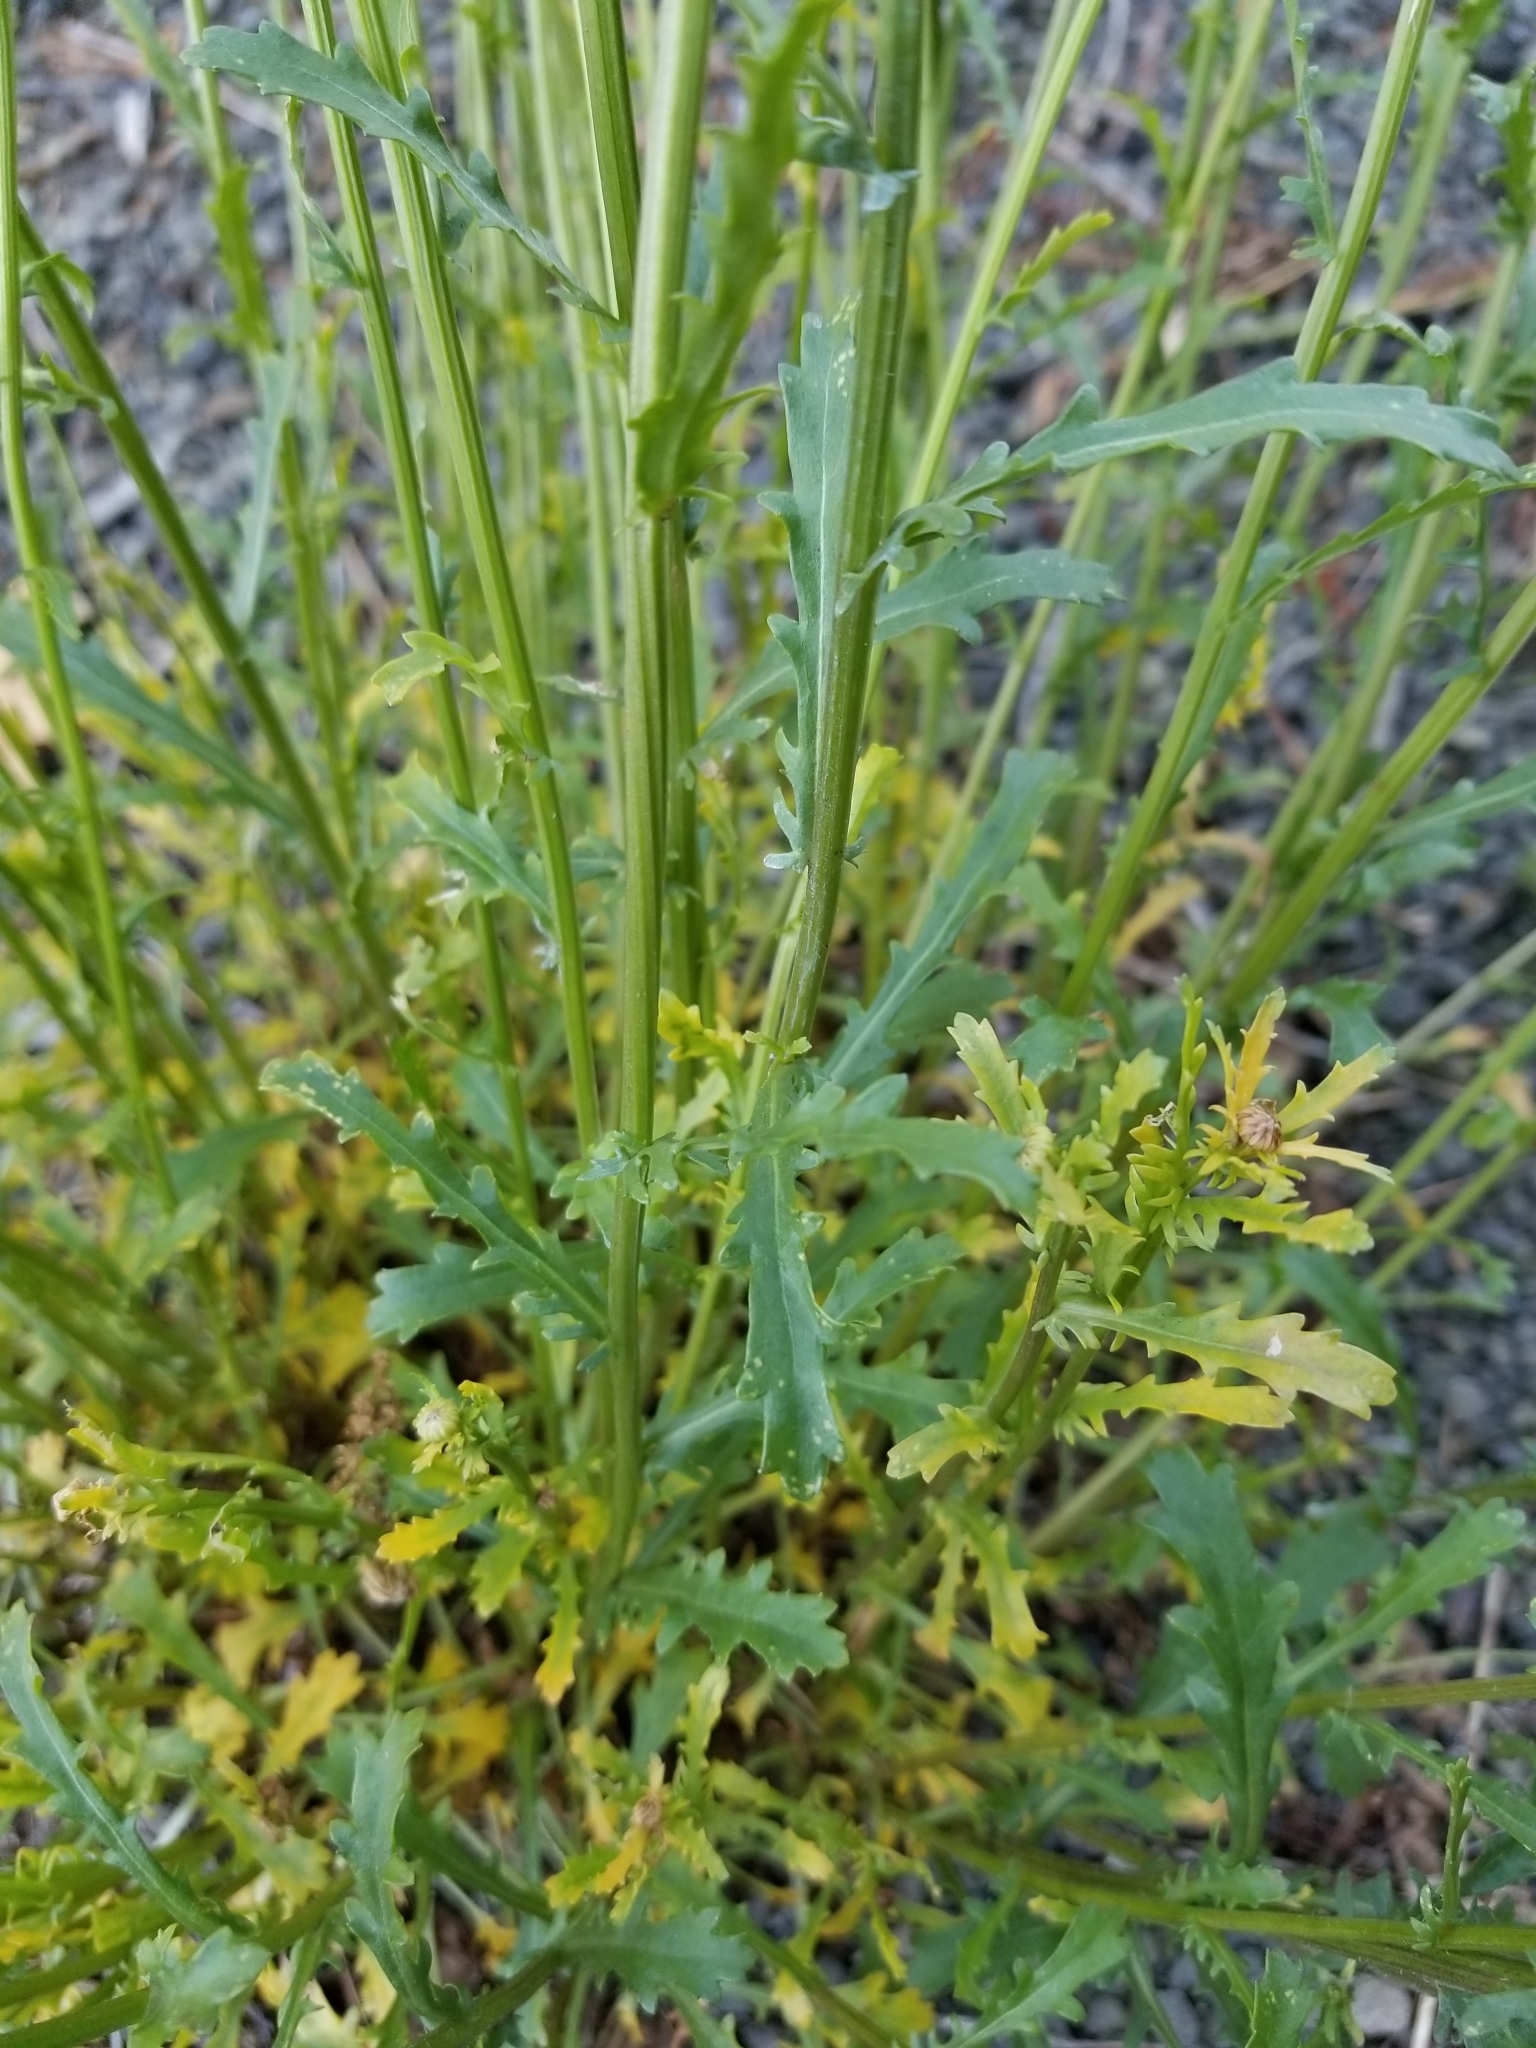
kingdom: Plantae
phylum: Tracheophyta
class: Magnoliopsida
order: Asterales
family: Asteraceae
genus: Leucanthemum
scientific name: Leucanthemum vulgare
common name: Oxeye daisy
